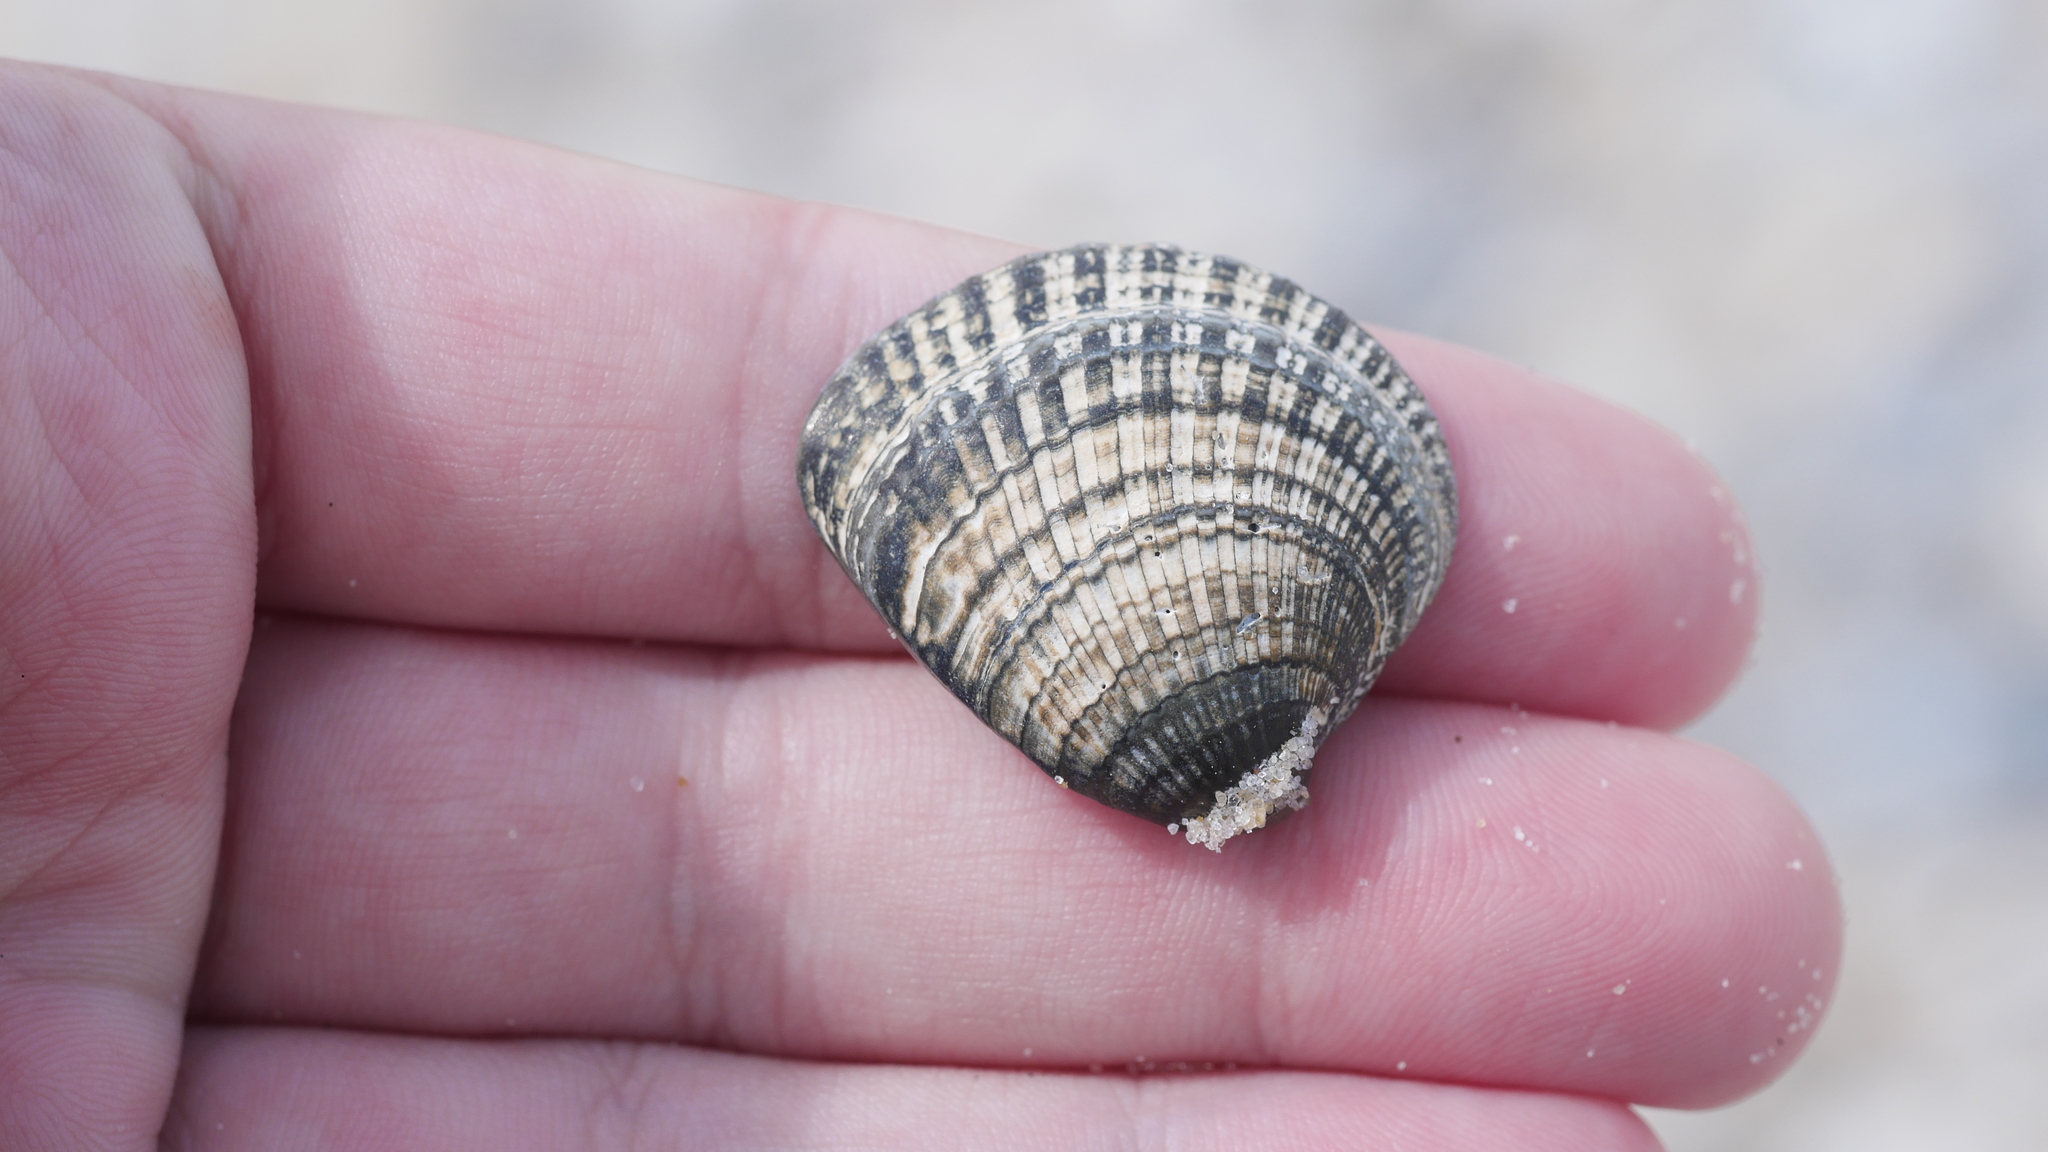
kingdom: Animalia
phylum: Mollusca
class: Bivalvia
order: Venerida
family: Veneridae
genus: Chione
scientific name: Chione elevata
